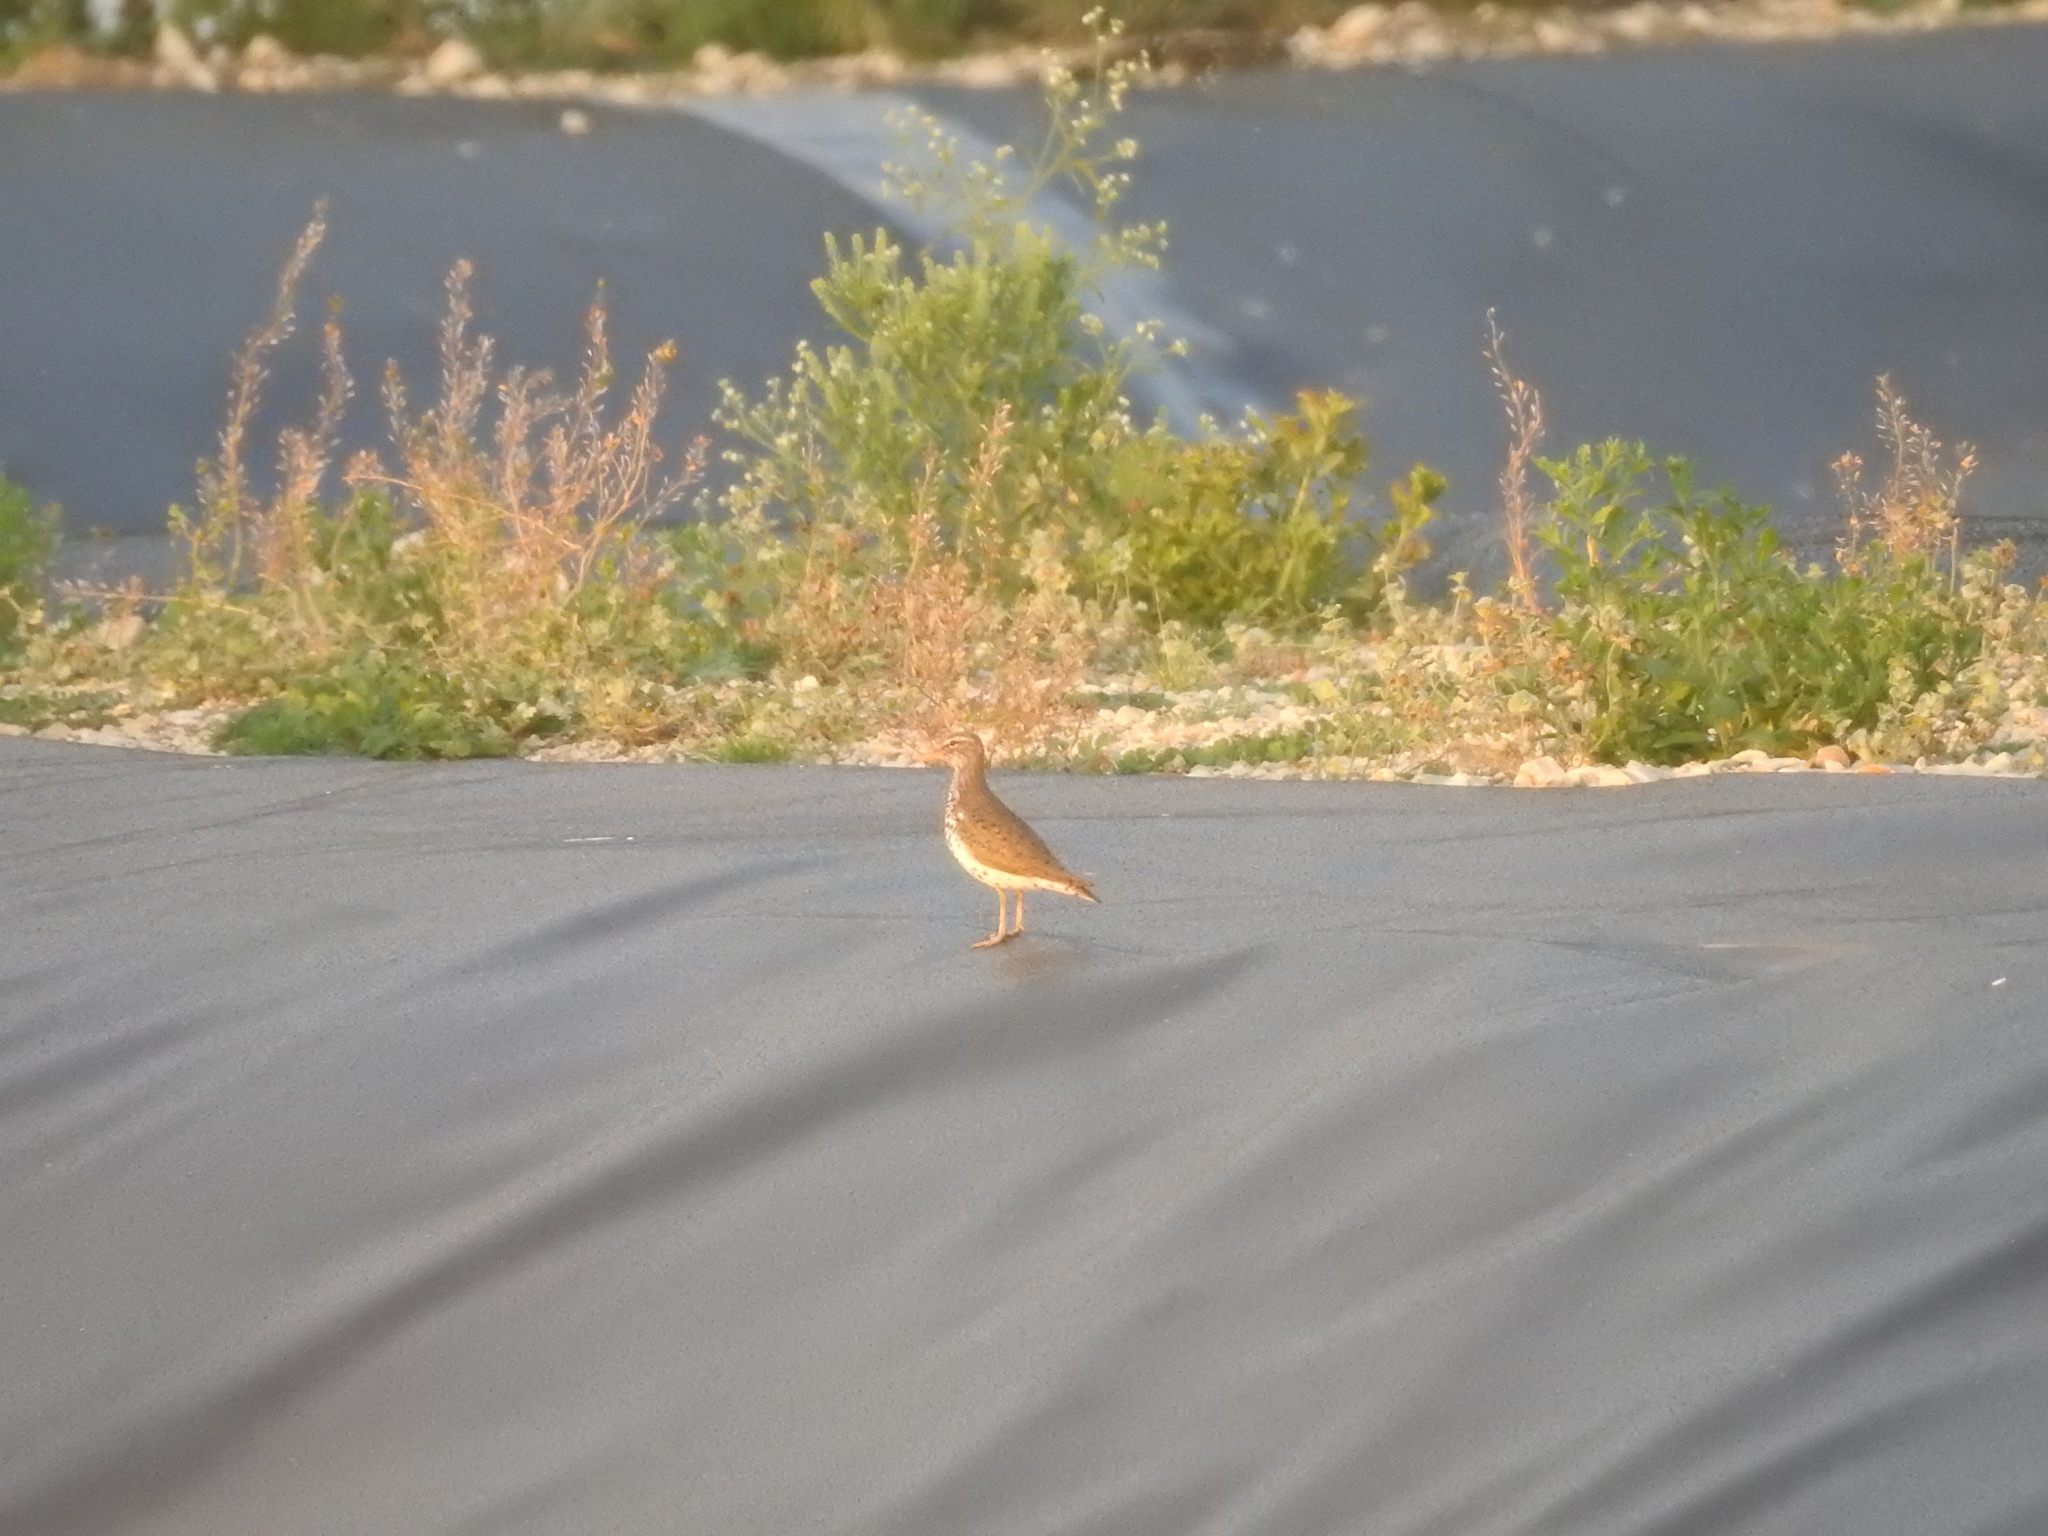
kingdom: Animalia
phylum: Chordata
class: Aves
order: Charadriiformes
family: Scolopacidae
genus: Actitis
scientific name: Actitis macularius
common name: Spotted sandpiper
